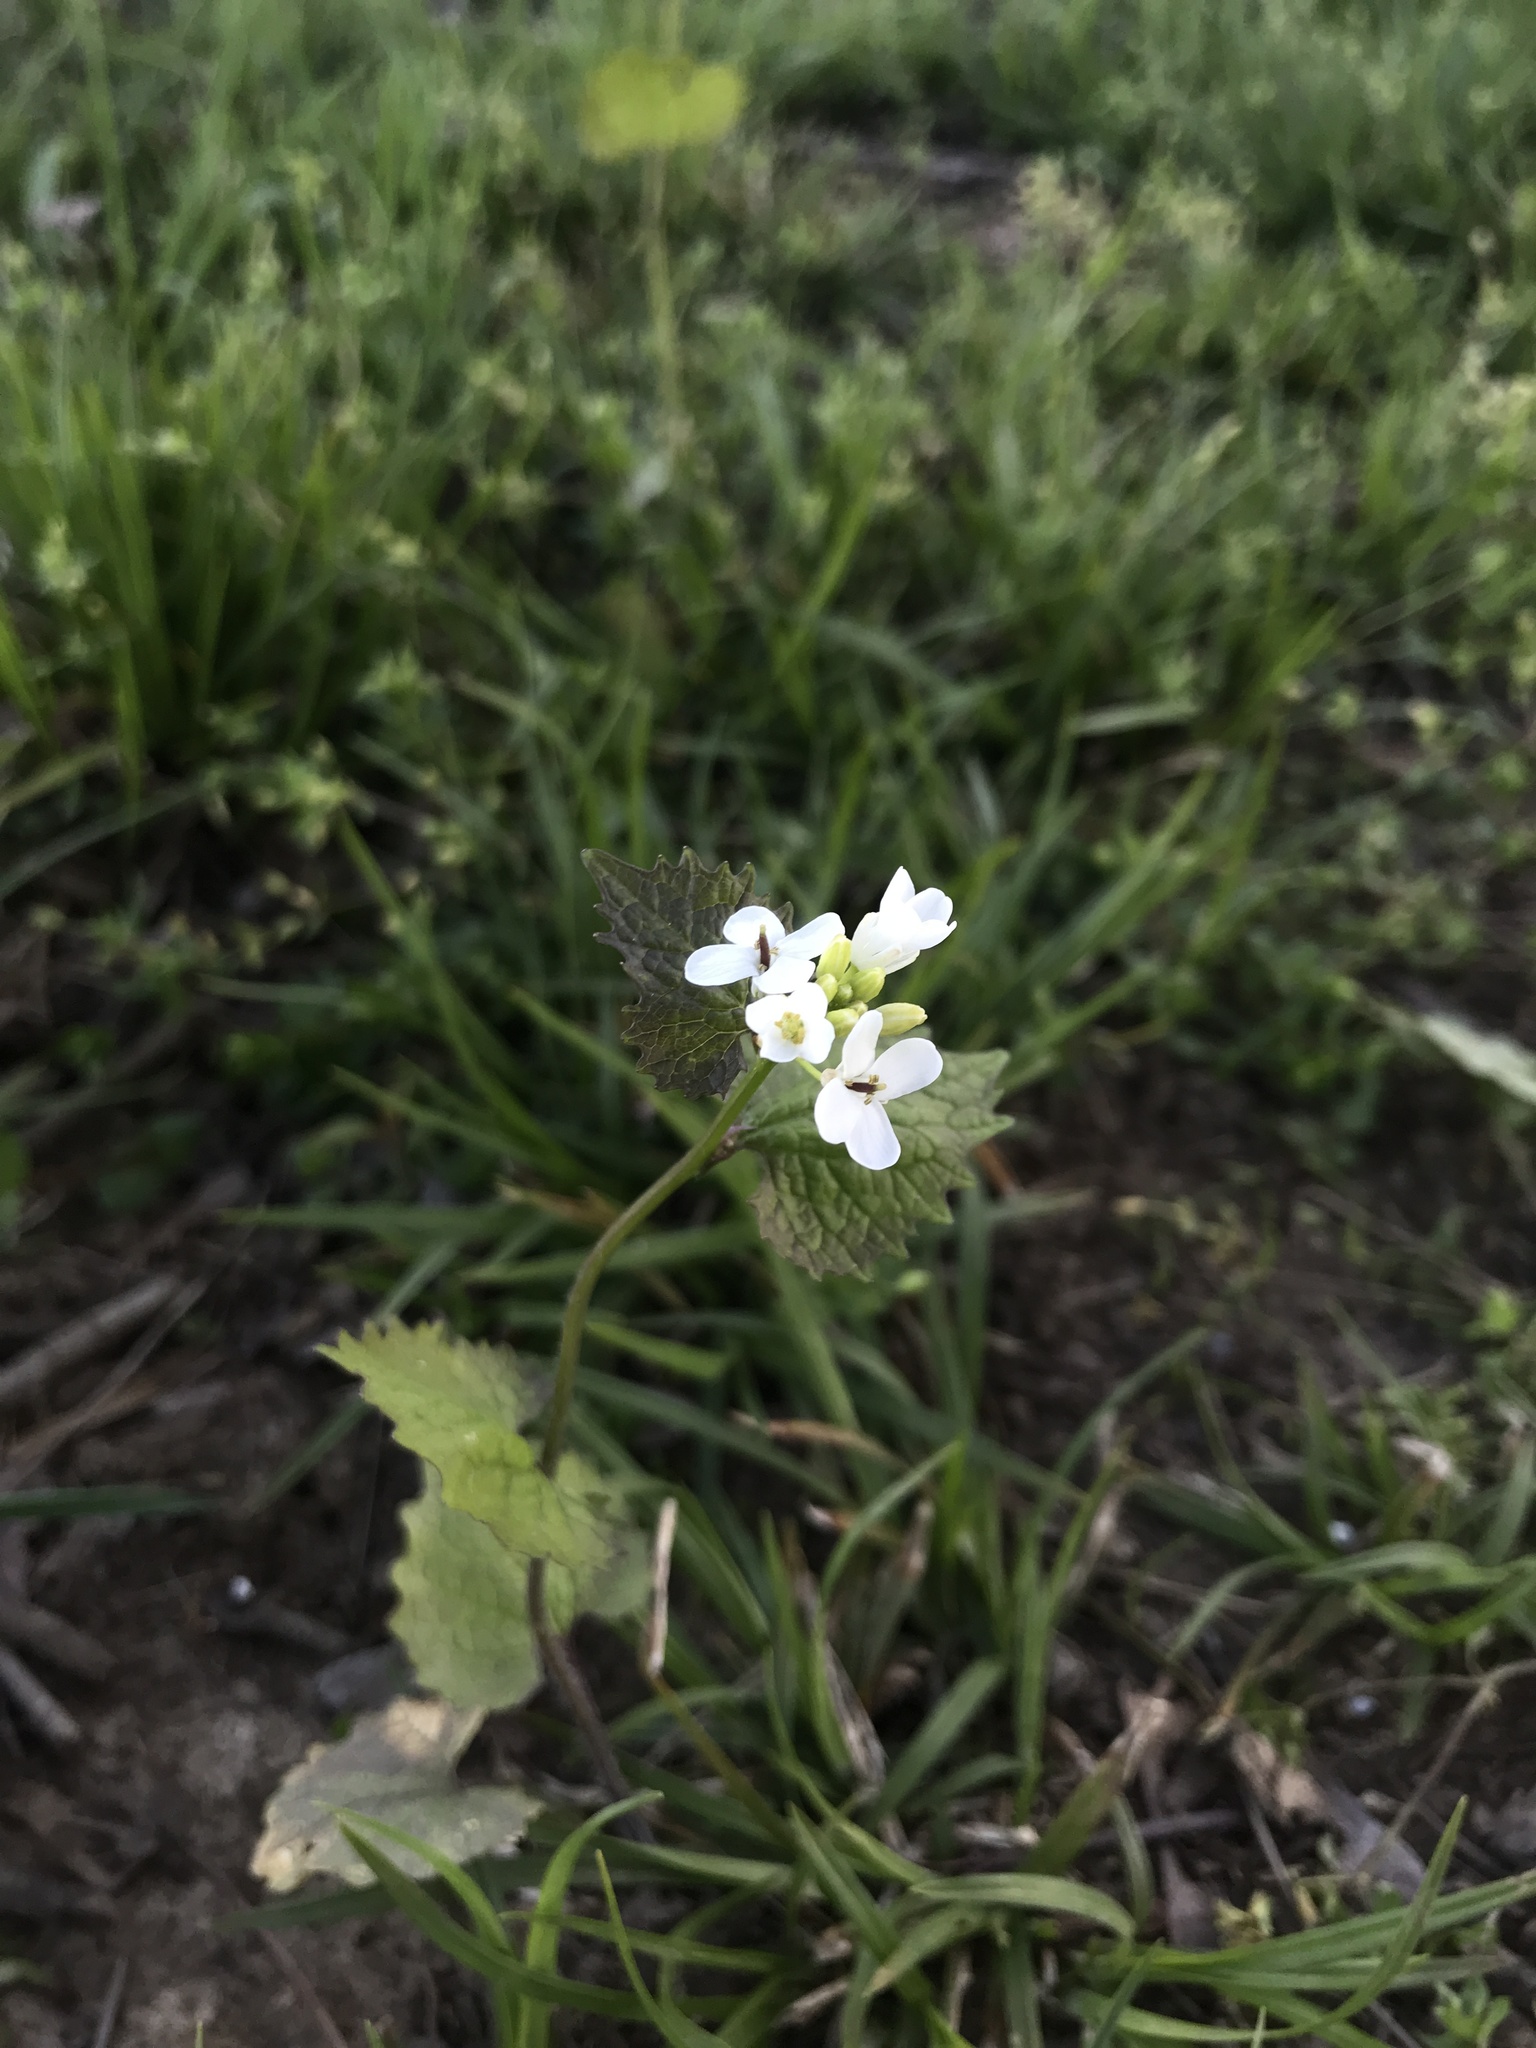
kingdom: Plantae
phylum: Tracheophyta
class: Magnoliopsida
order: Brassicales
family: Brassicaceae
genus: Alliaria
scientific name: Alliaria petiolata
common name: Garlic mustard
